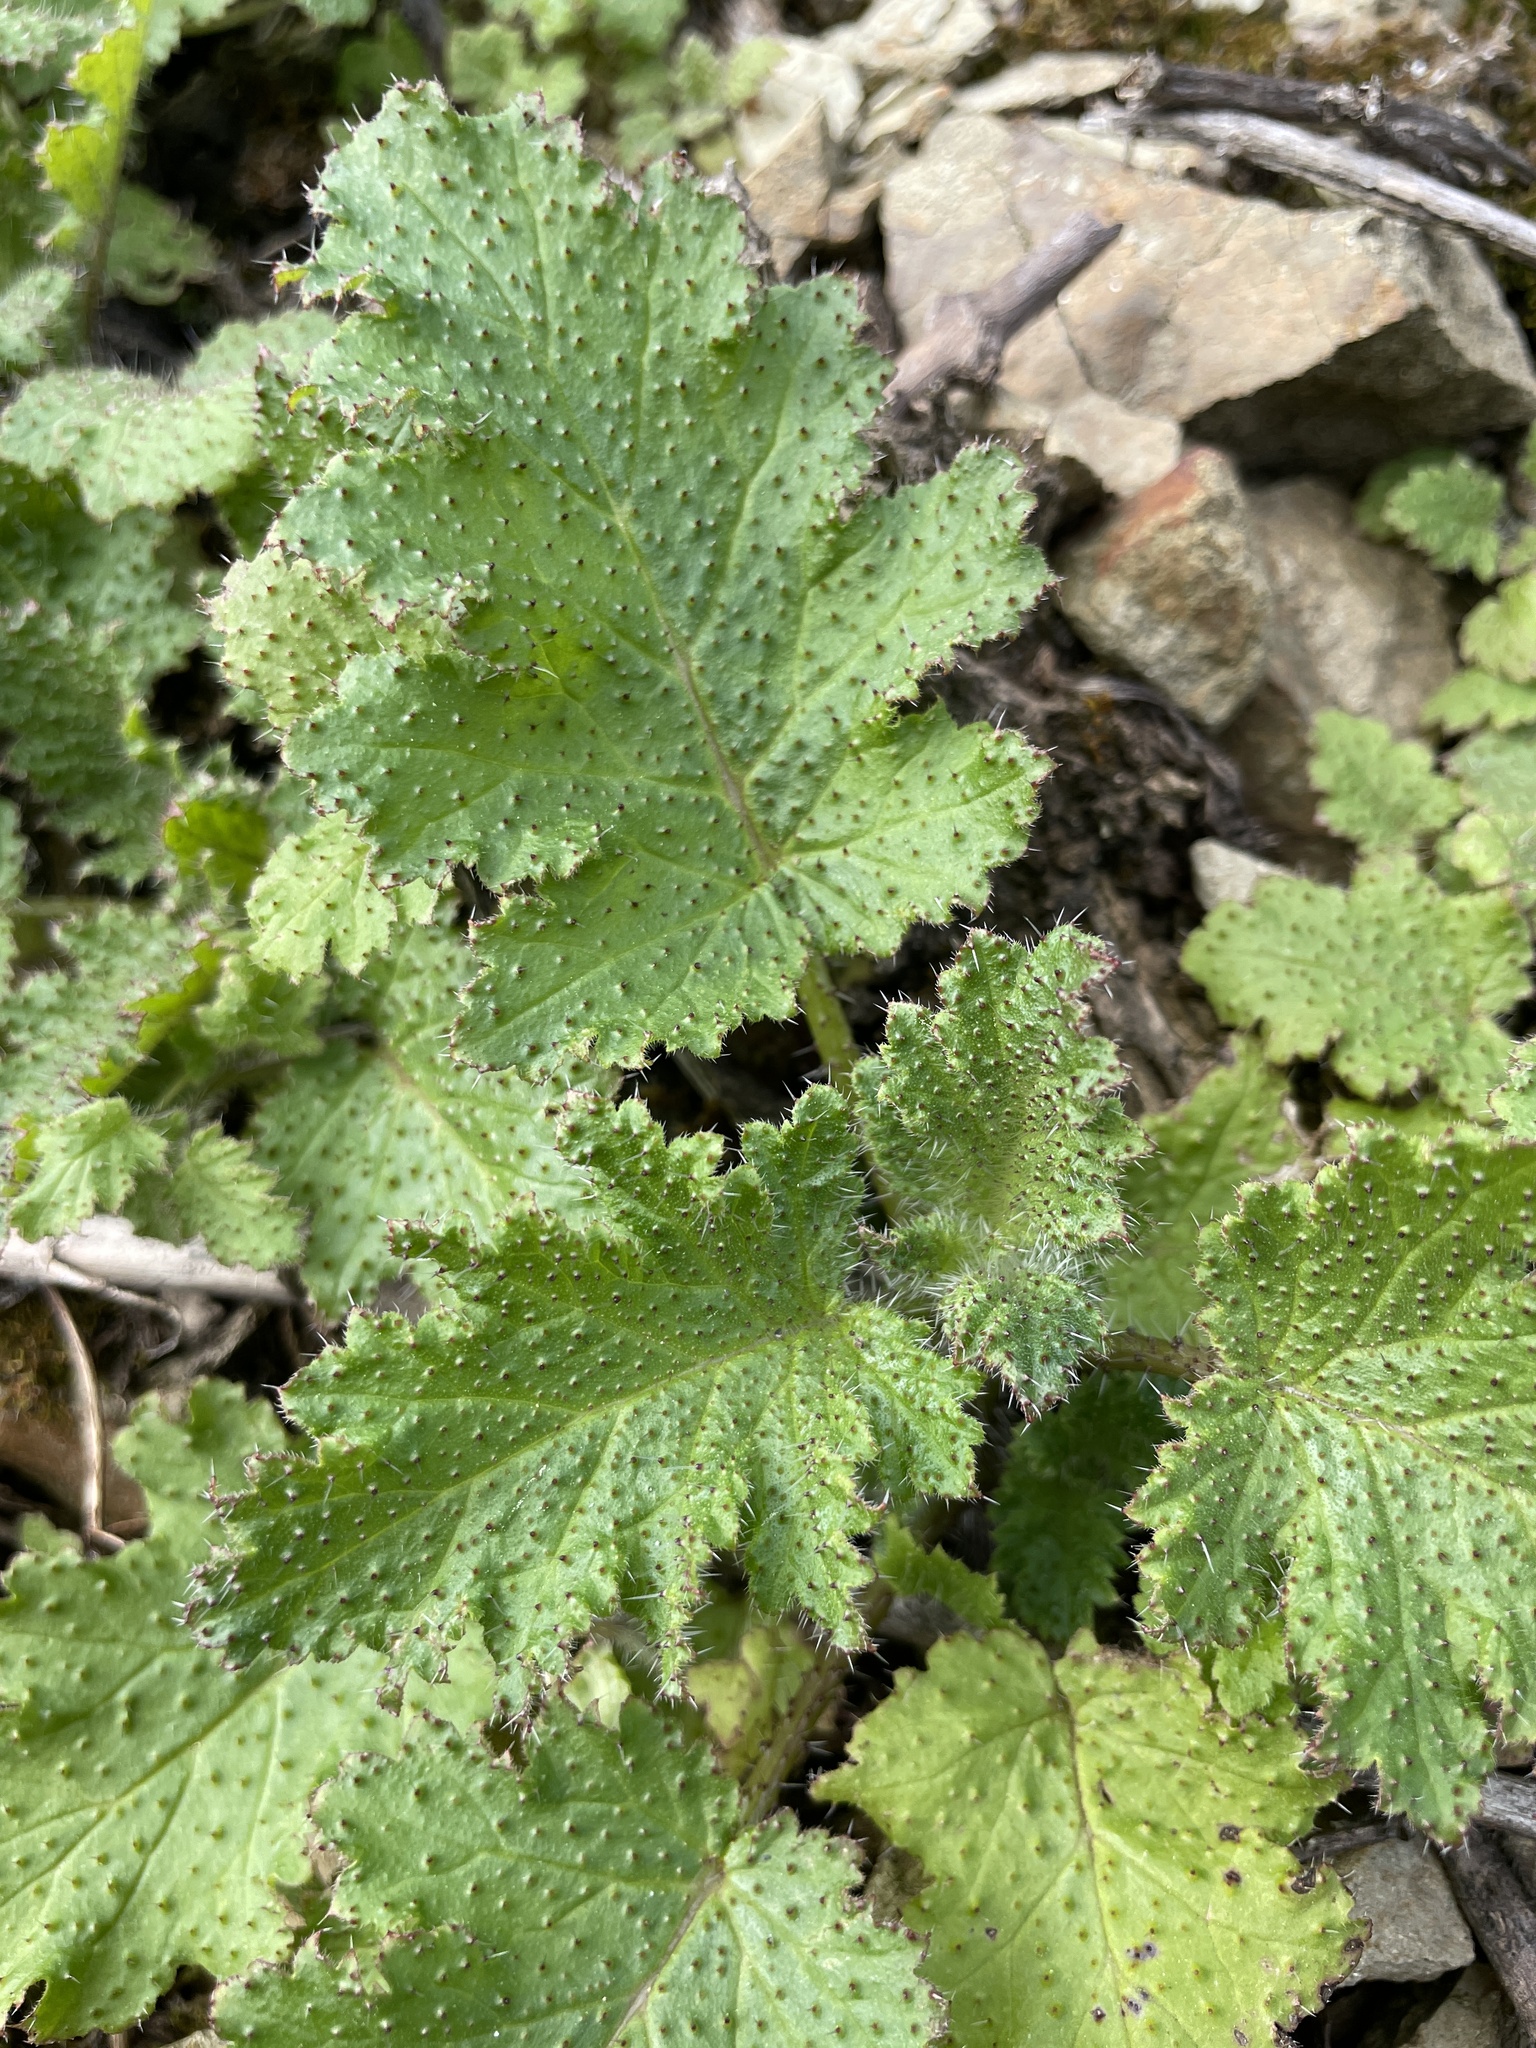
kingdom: Plantae
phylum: Tracheophyta
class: Magnoliopsida
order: Boraginales
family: Hydrophyllaceae
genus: Phacelia
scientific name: Phacelia malvifolia
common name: Mallow-leaf phacelia
